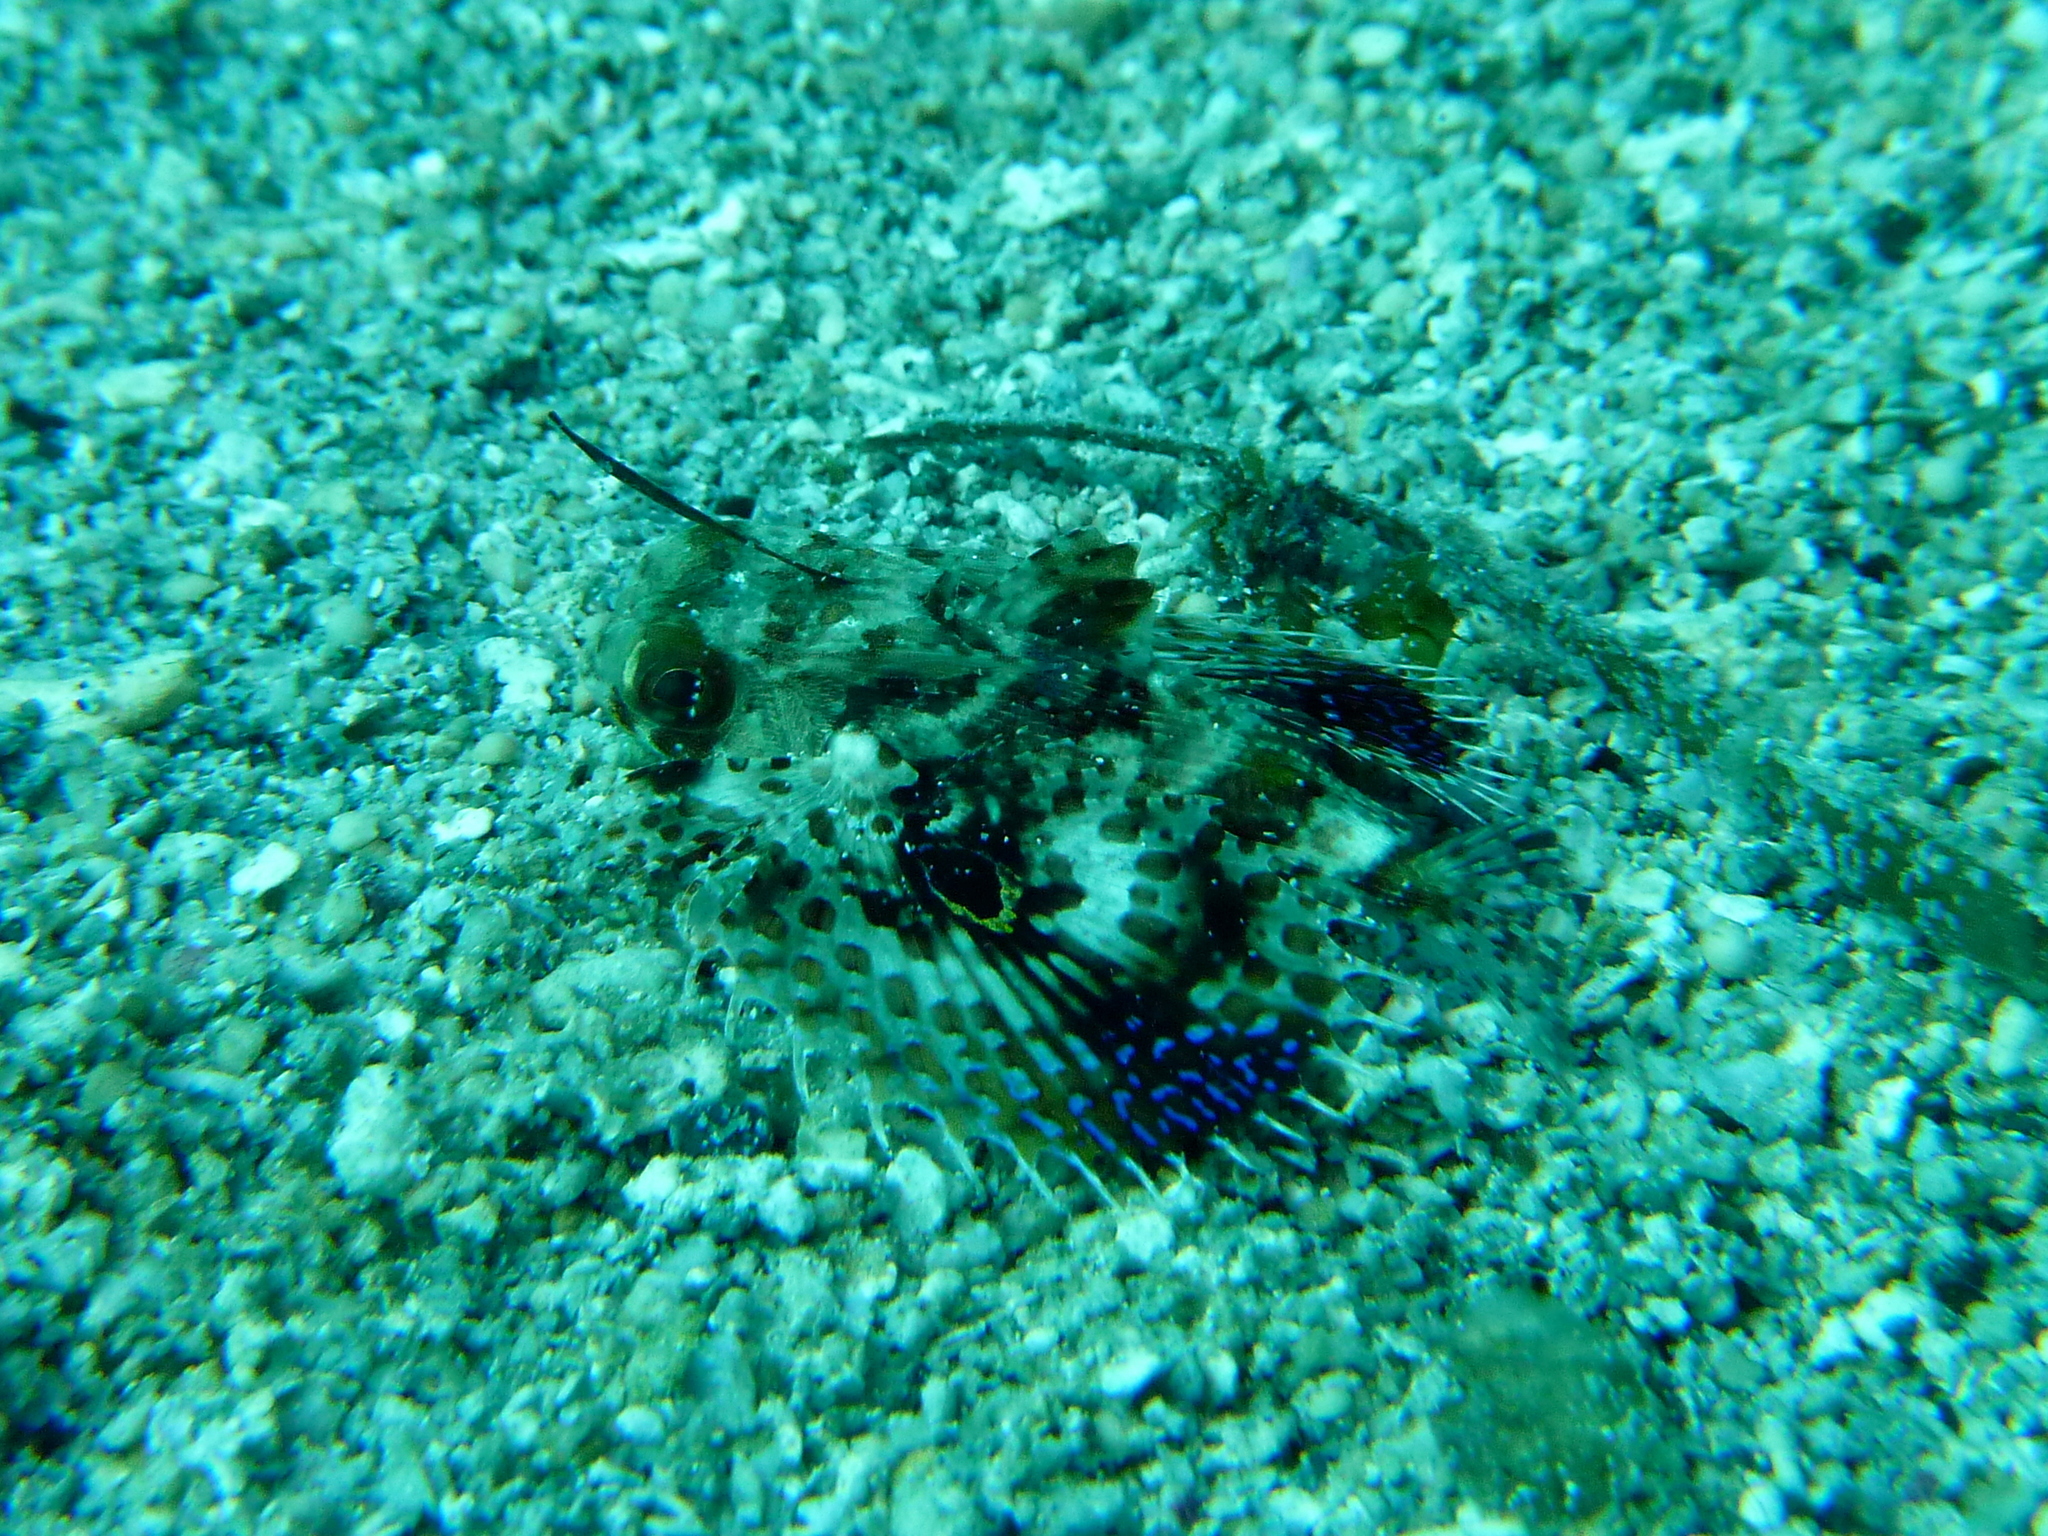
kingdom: Animalia
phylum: Chordata
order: Scorpaeniformes
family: Dactylopteridae
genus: Dactyloptena
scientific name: Dactyloptena orientalis
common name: Flying gurnard
